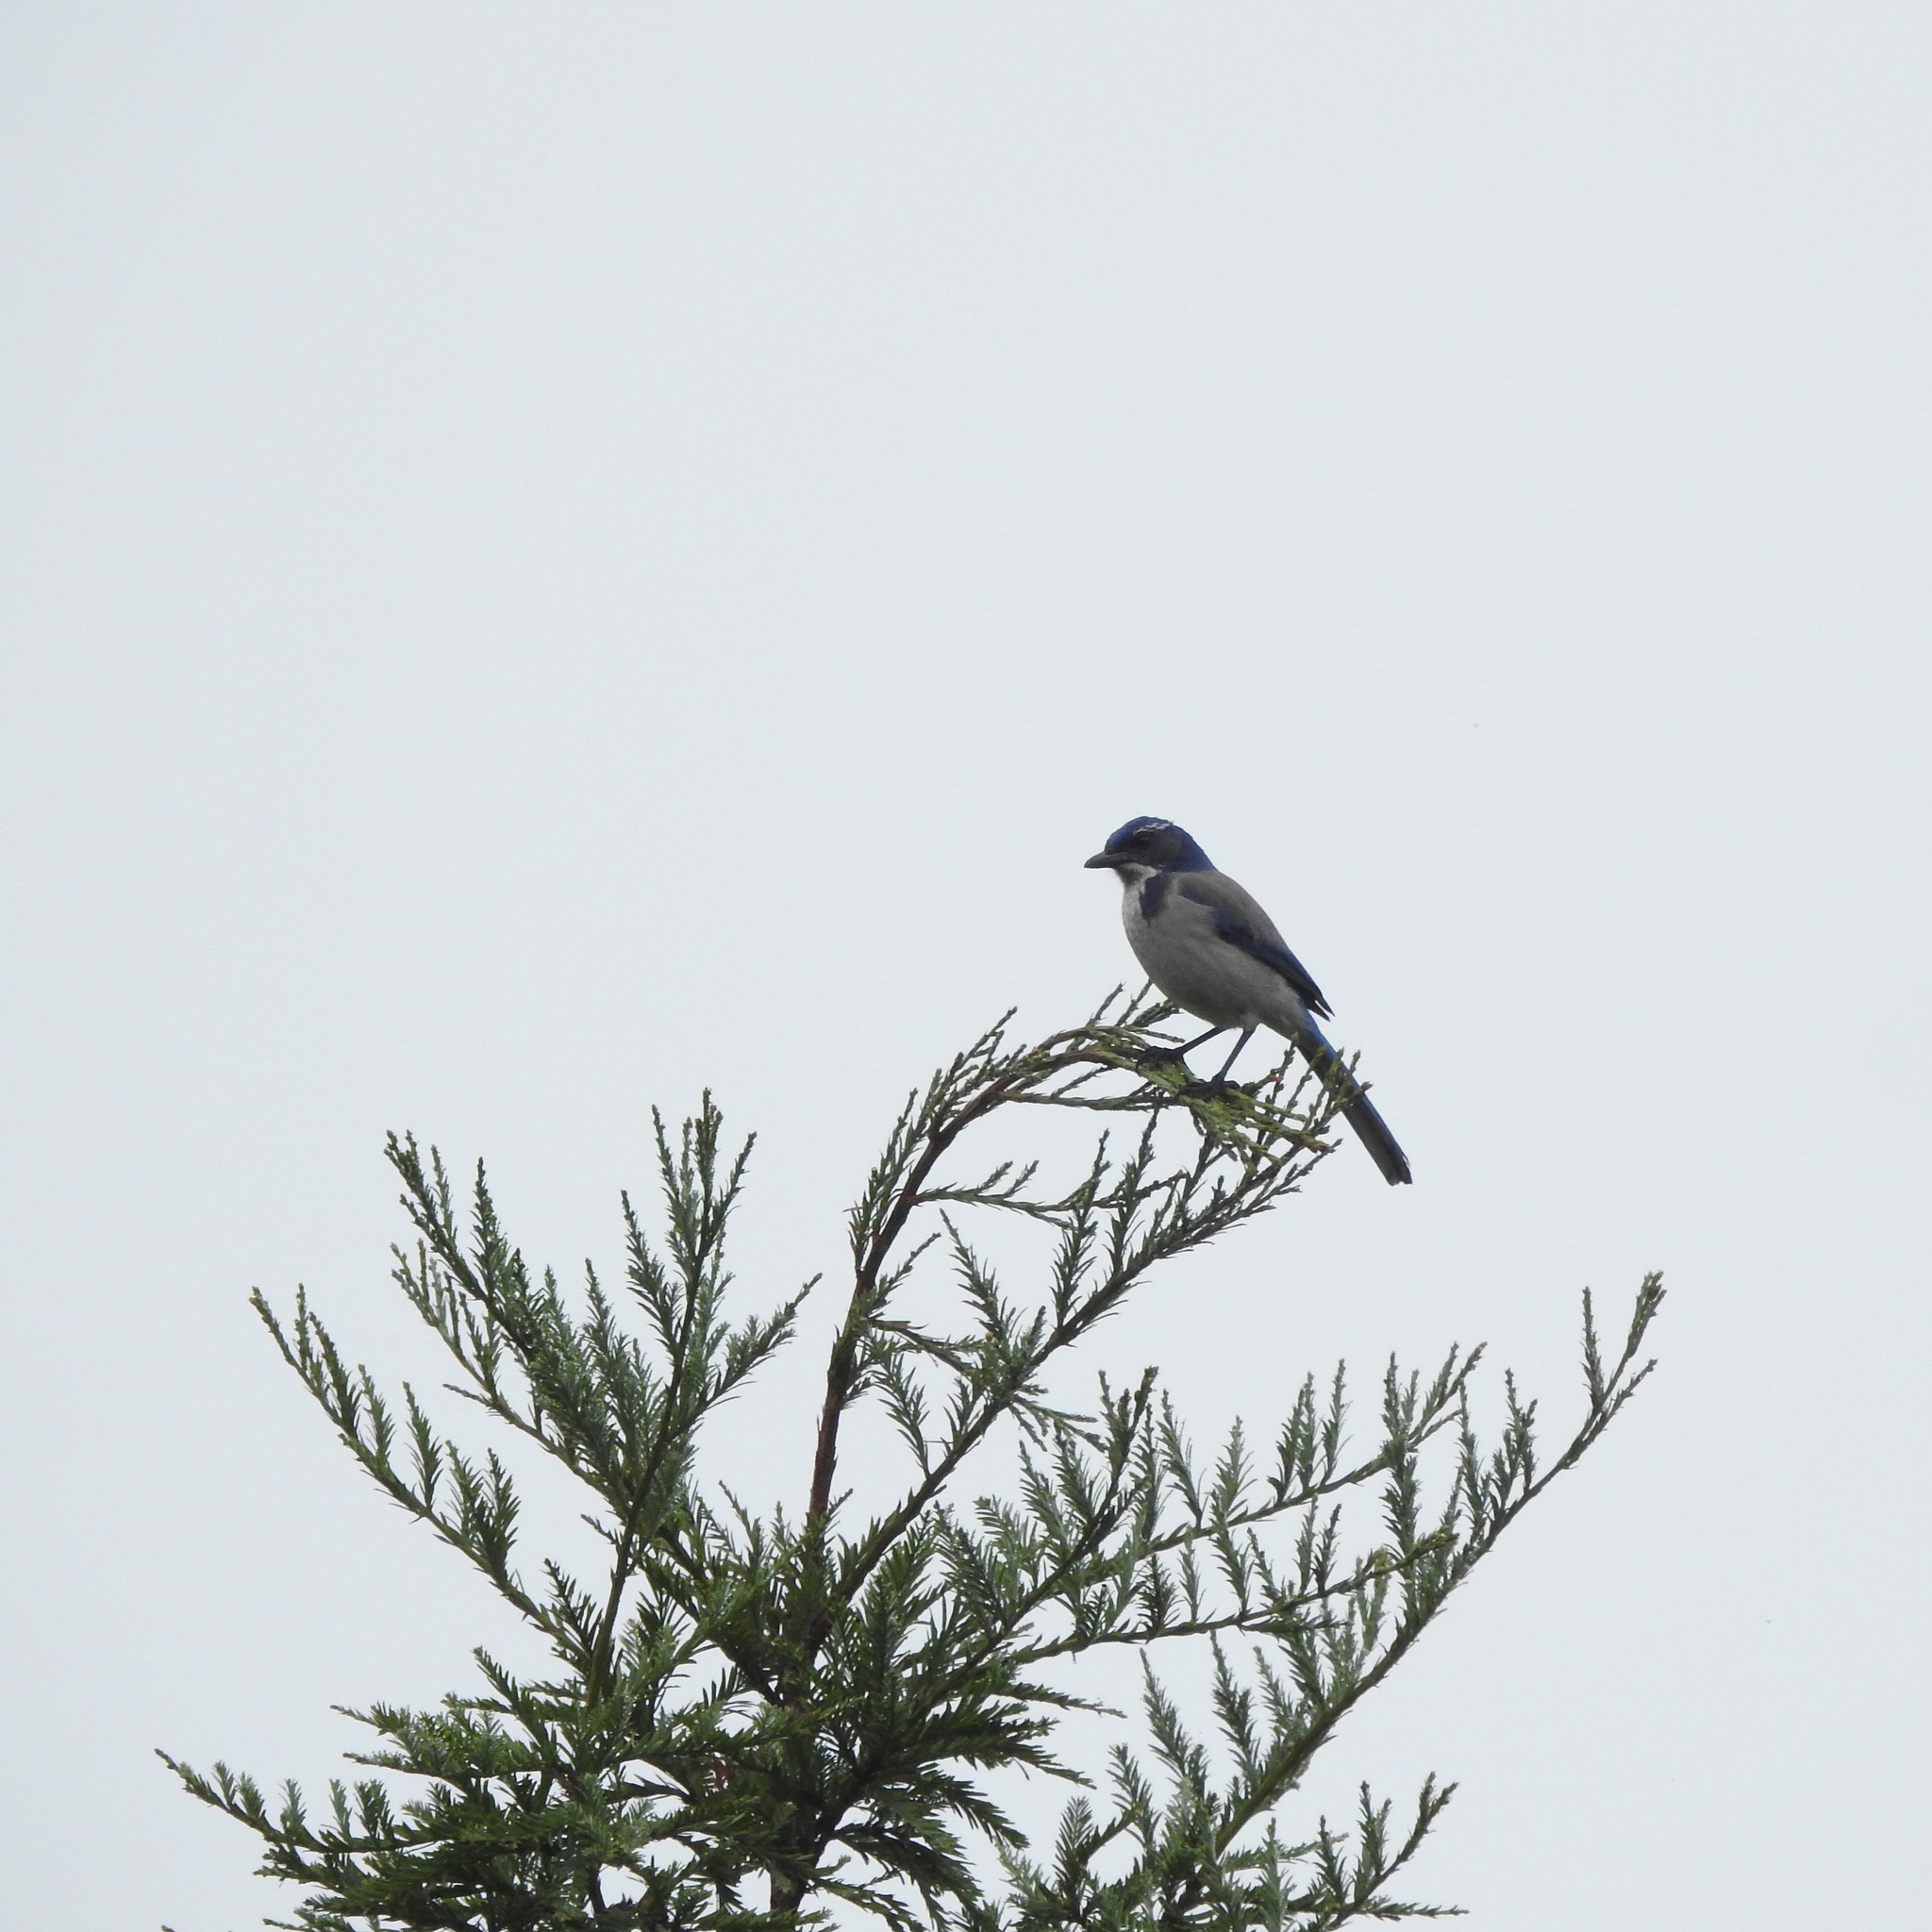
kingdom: Animalia
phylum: Chordata
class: Aves
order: Passeriformes
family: Corvidae
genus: Aphelocoma
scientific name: Aphelocoma californica
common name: California scrub-jay
